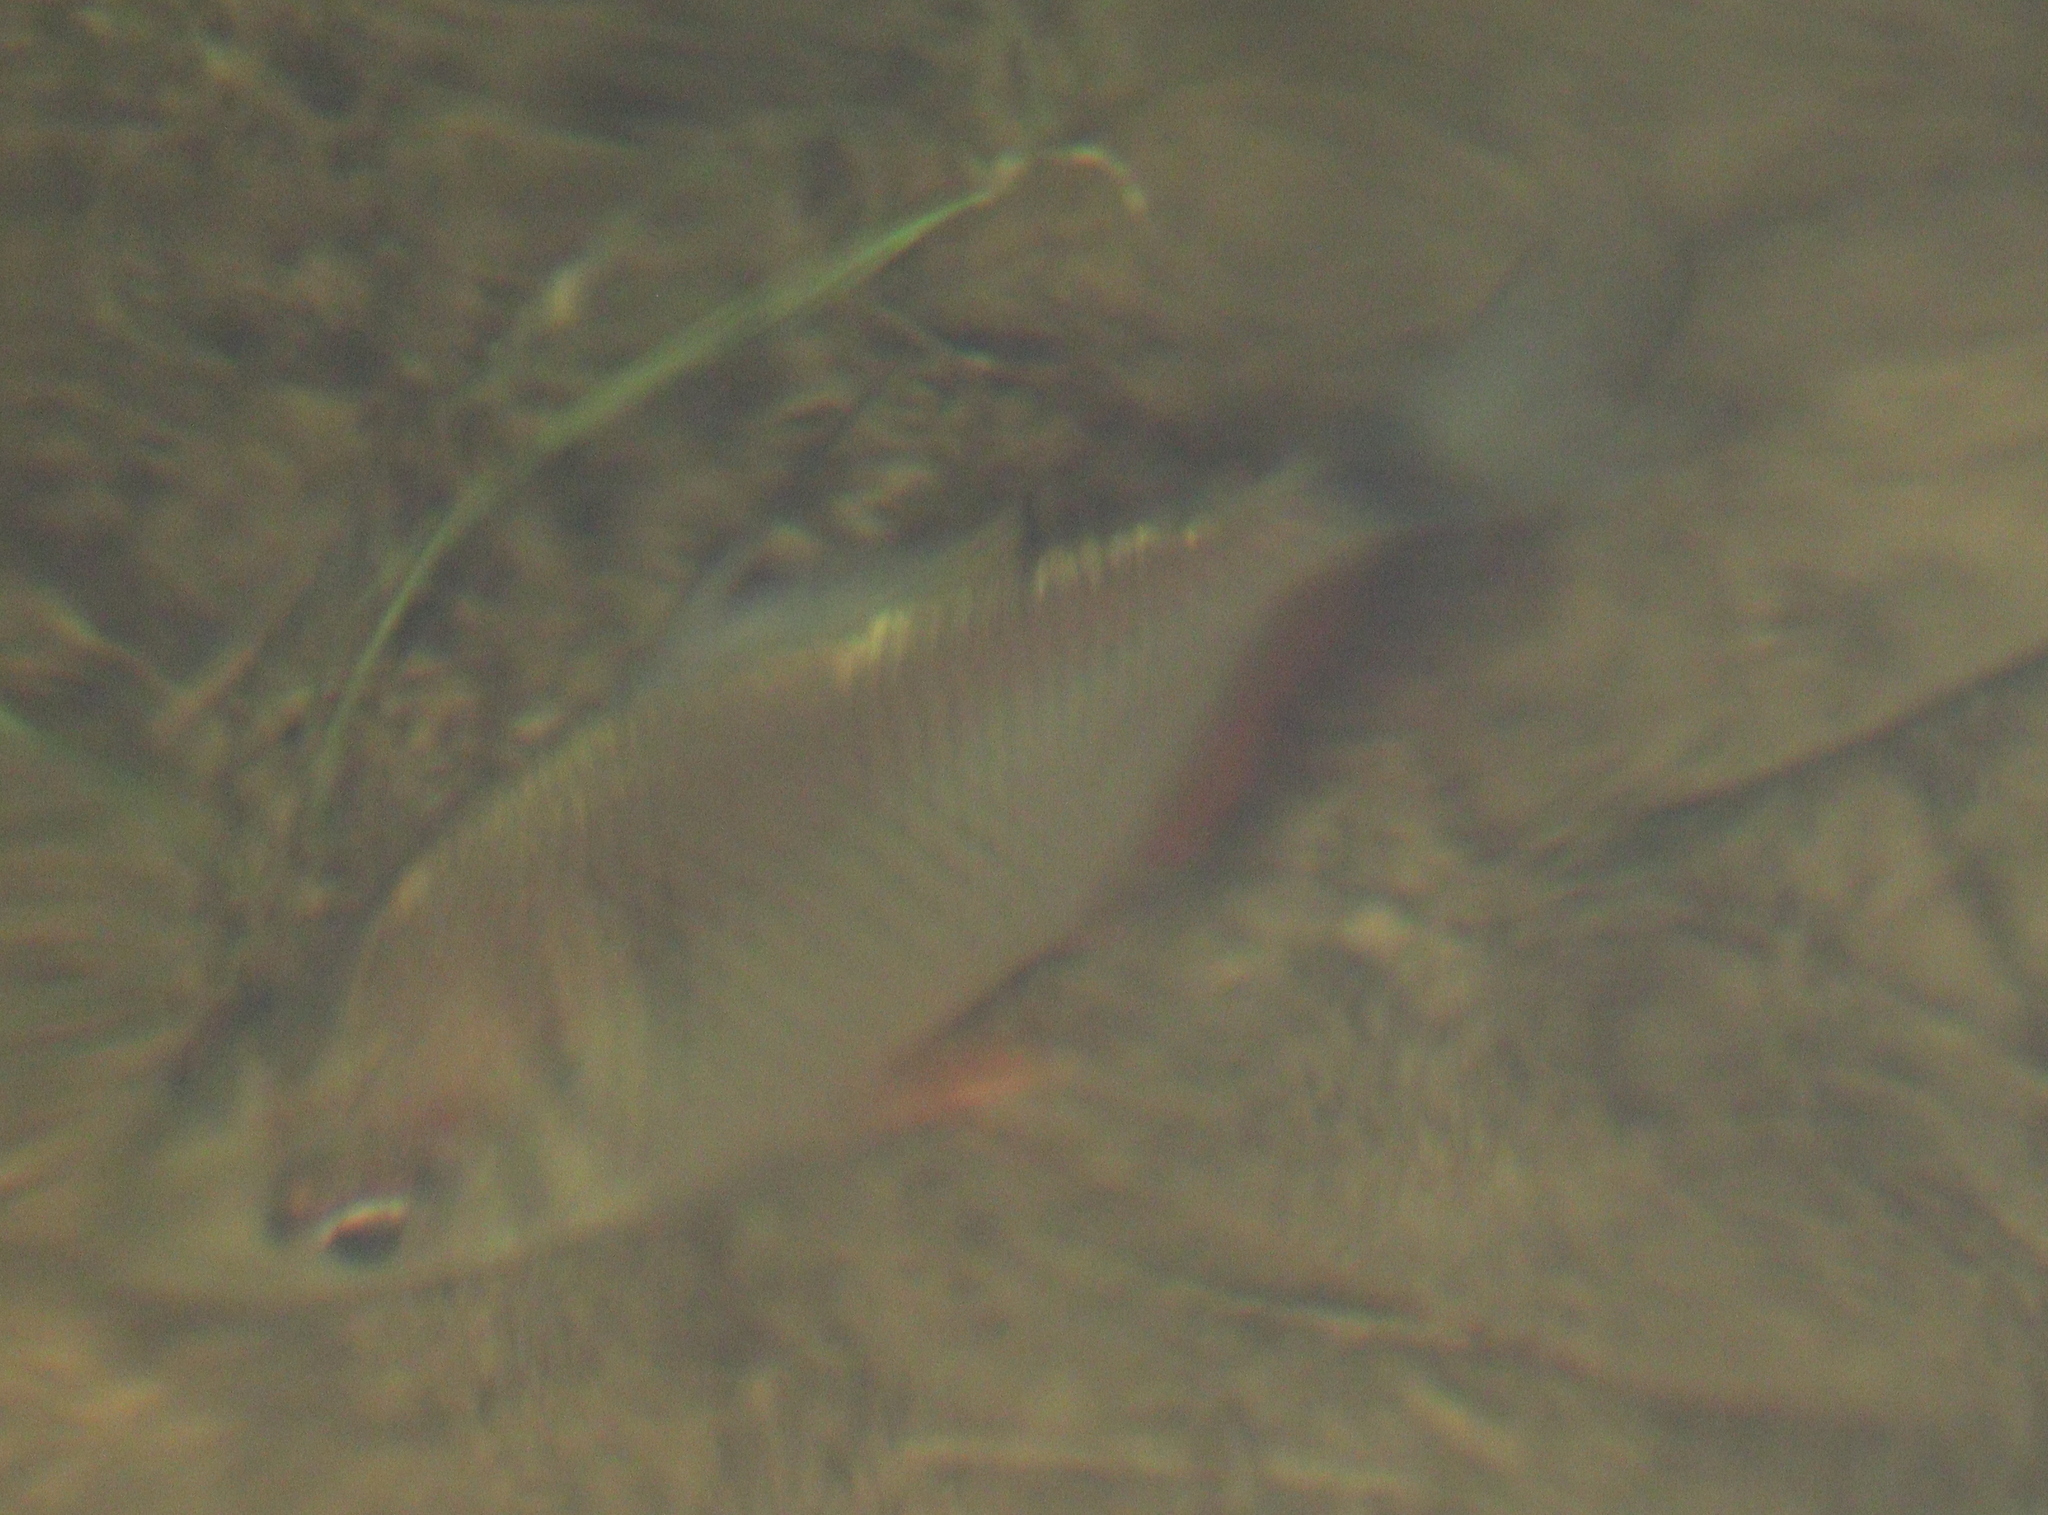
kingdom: Animalia
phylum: Chordata
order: Characiformes
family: Characidae
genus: Tetragonopterus
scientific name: Tetragonopterus argenteus
